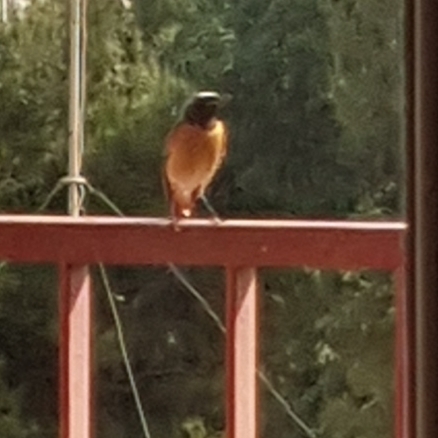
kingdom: Animalia
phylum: Chordata
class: Aves
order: Passeriformes
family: Muscicapidae
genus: Phoenicurus
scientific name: Phoenicurus phoenicurus
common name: Common redstart
